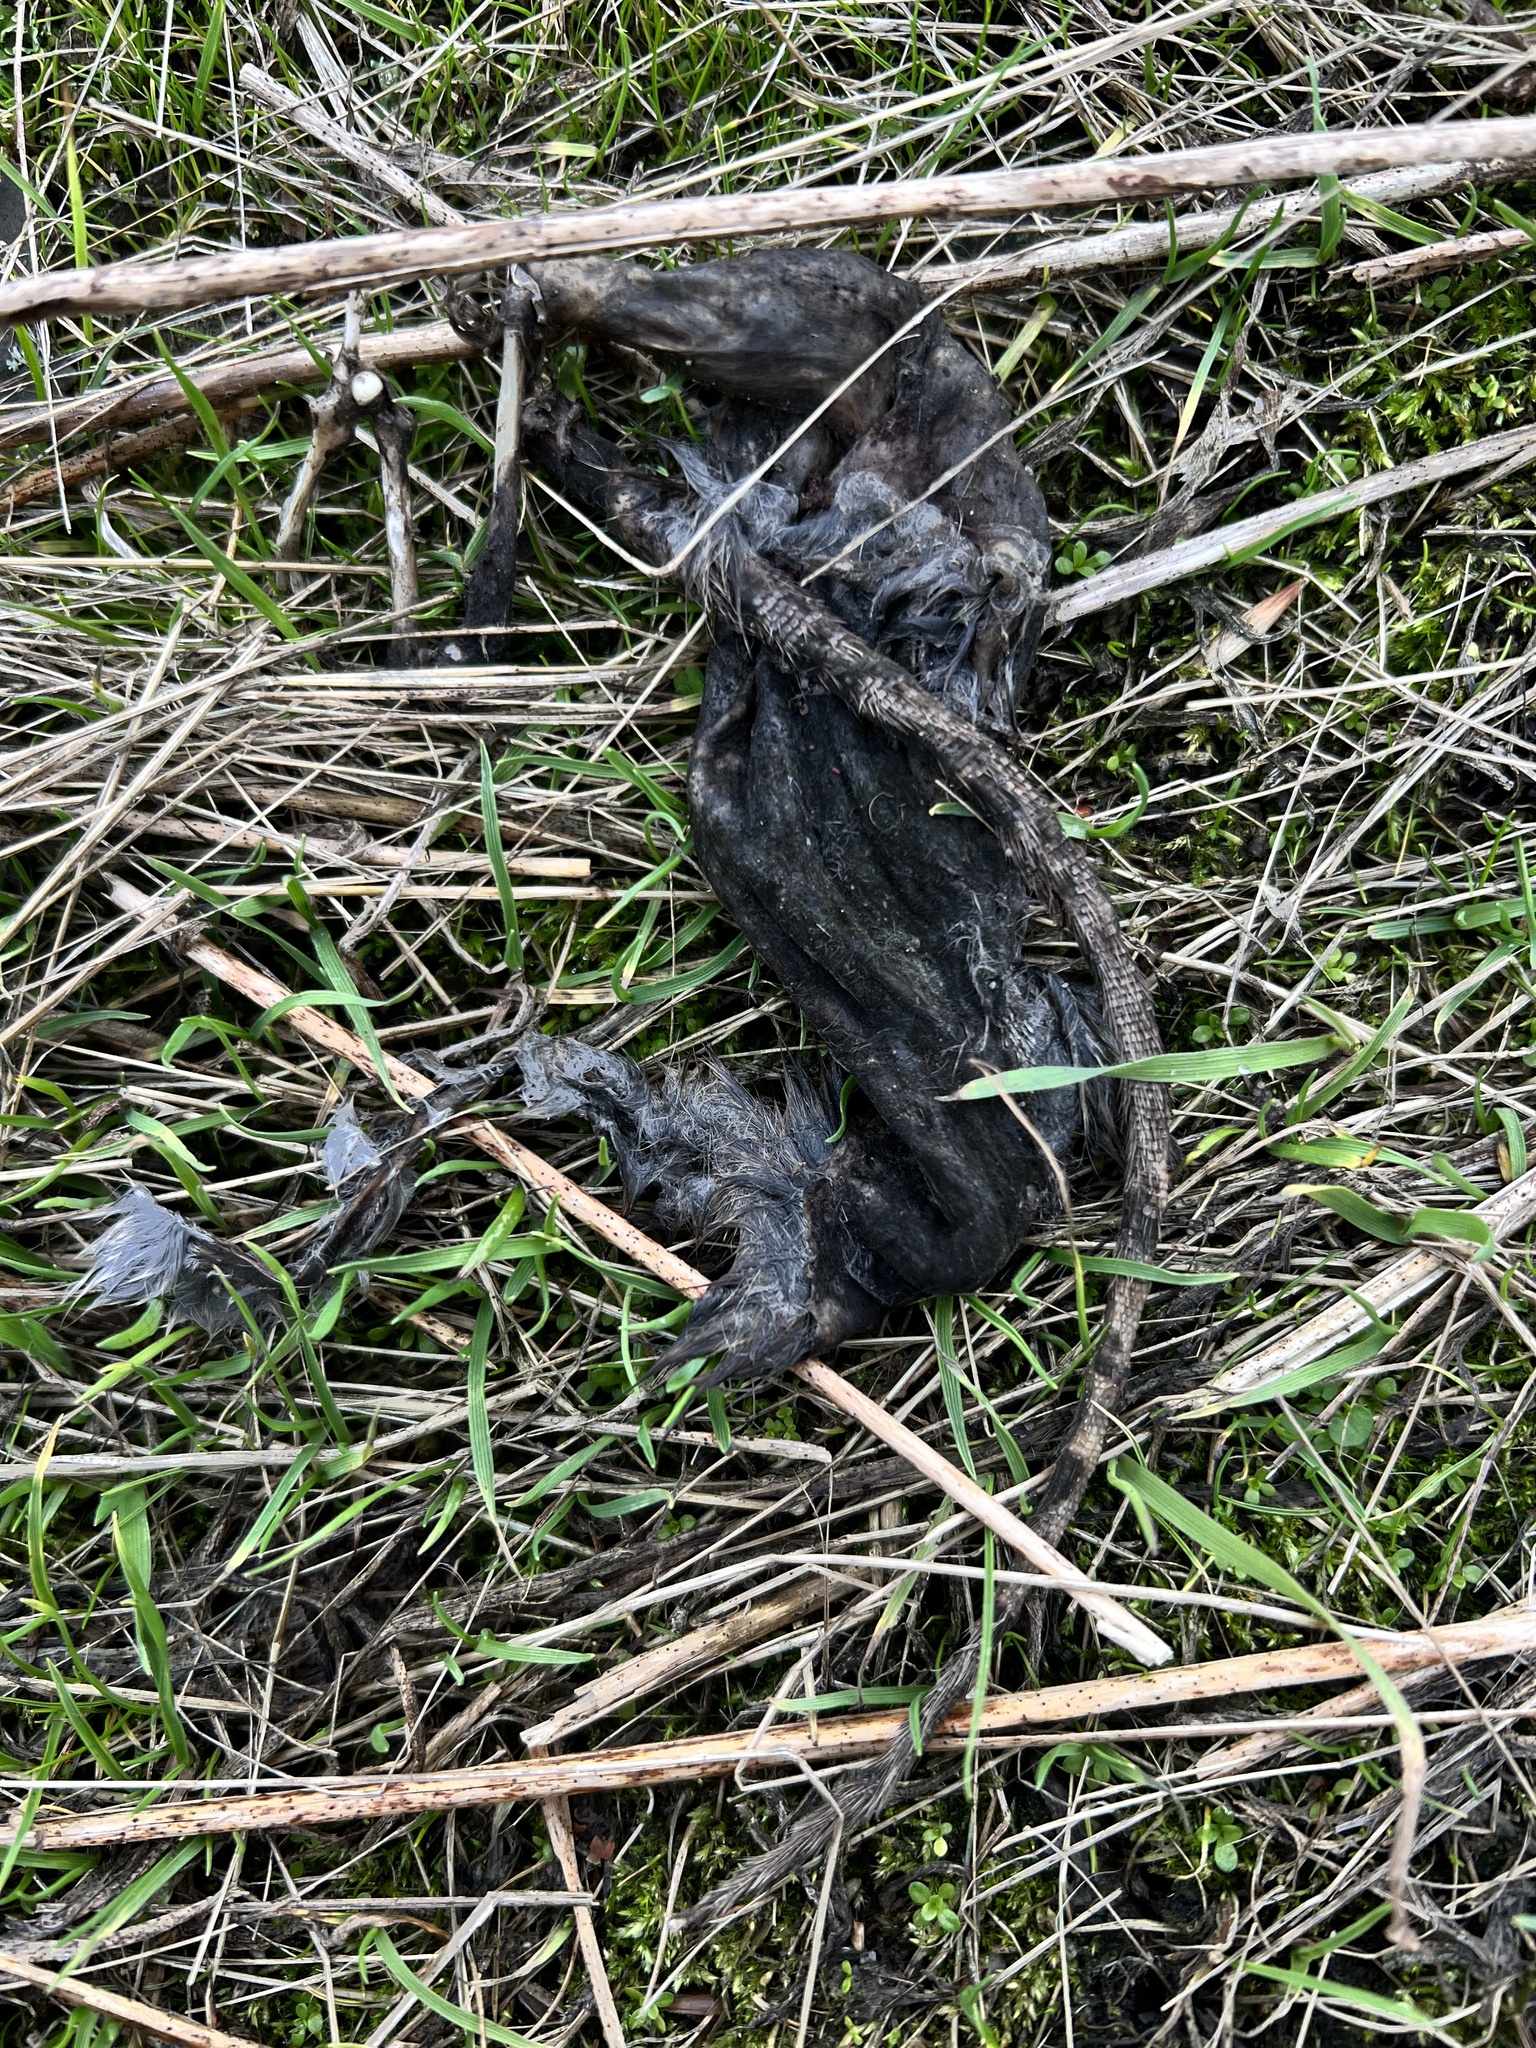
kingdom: Animalia
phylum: Chordata
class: Mammalia
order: Rodentia
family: Muridae
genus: Rattus
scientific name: Rattus rattus
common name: Black rat
